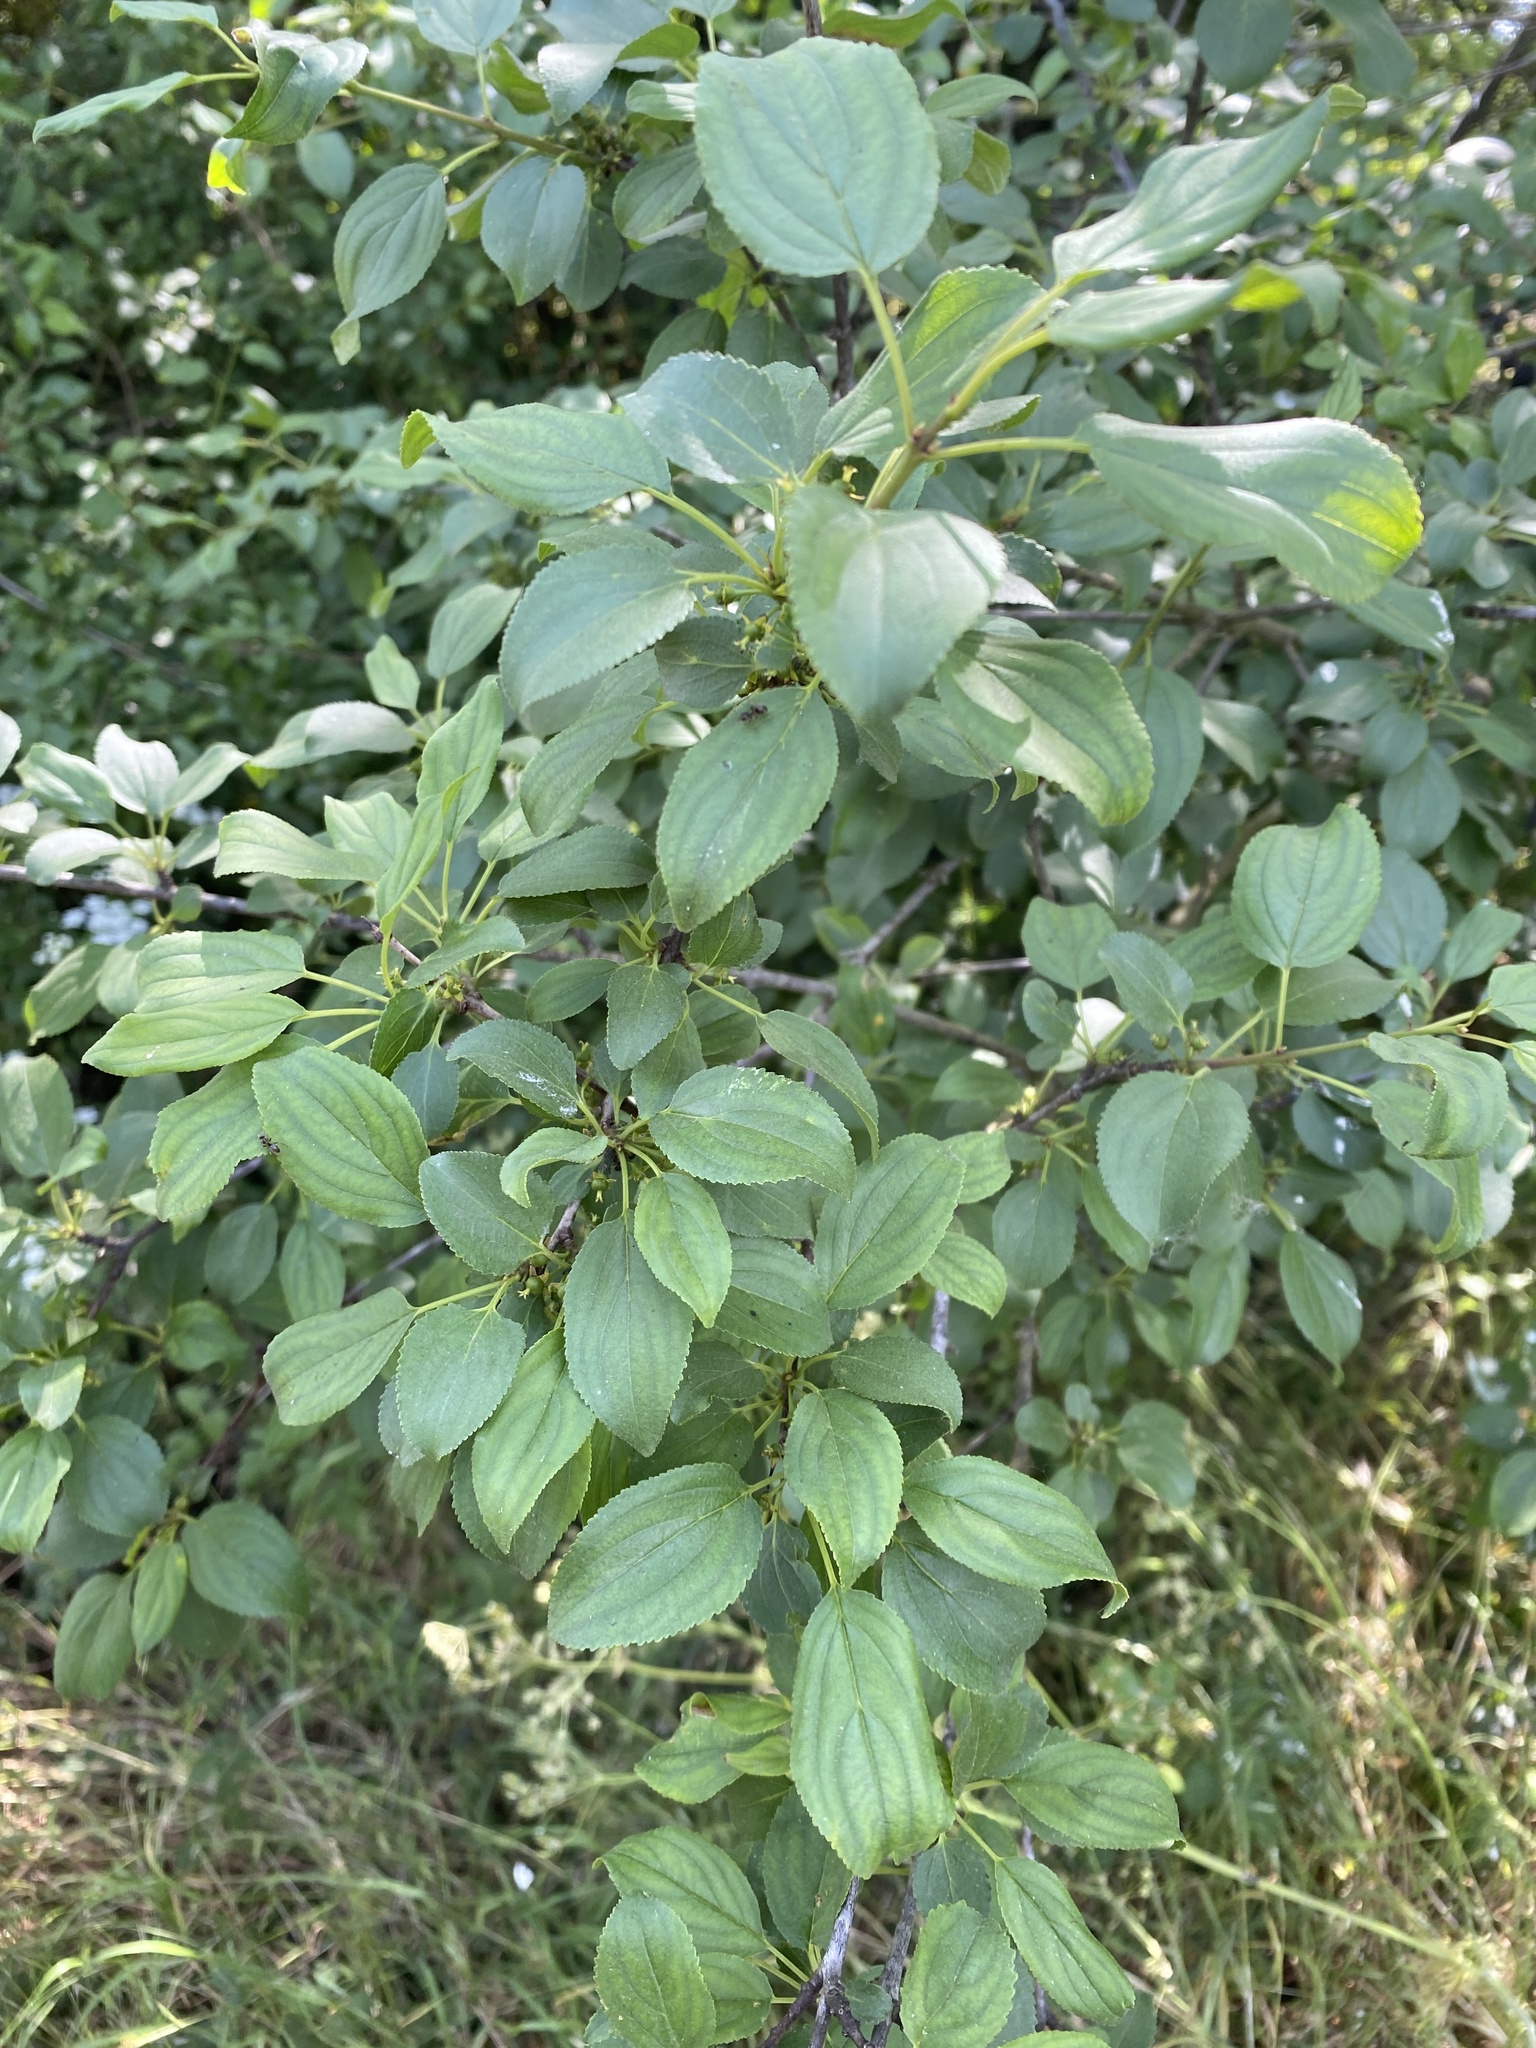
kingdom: Plantae
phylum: Tracheophyta
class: Magnoliopsida
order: Rosales
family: Rhamnaceae
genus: Rhamnus
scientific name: Rhamnus cathartica
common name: Common buckthorn
